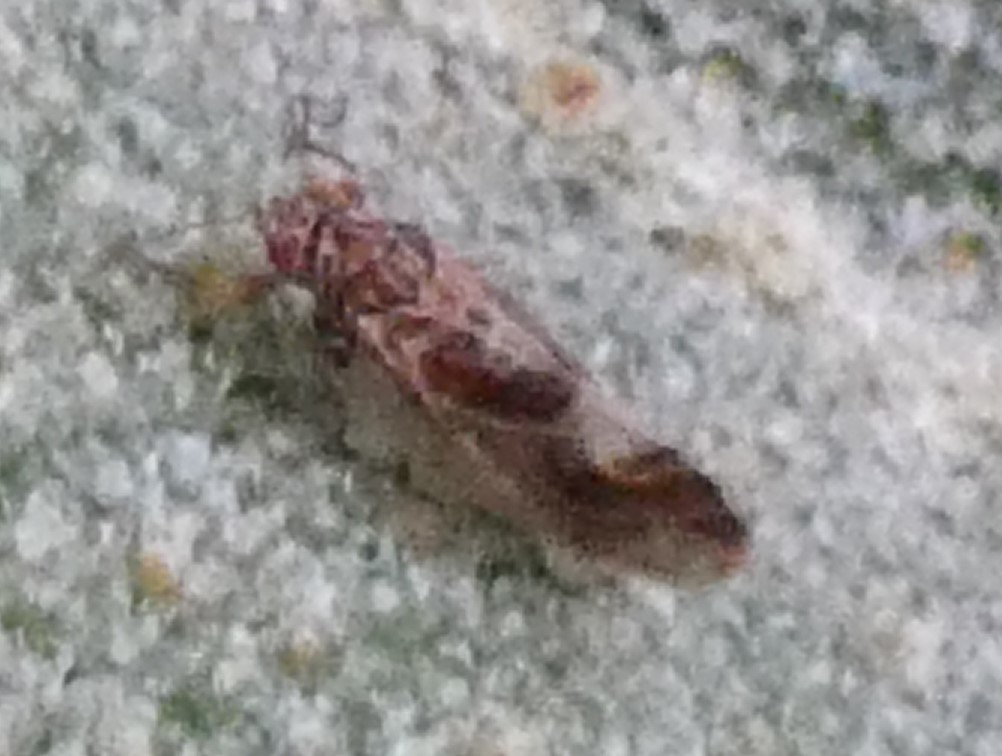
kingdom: Animalia
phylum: Arthropoda
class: Insecta
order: Hemiptera
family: Psyllidae
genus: Cacopsylla
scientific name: Cacopsylla fulguralis
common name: Elaeagnus sucker
